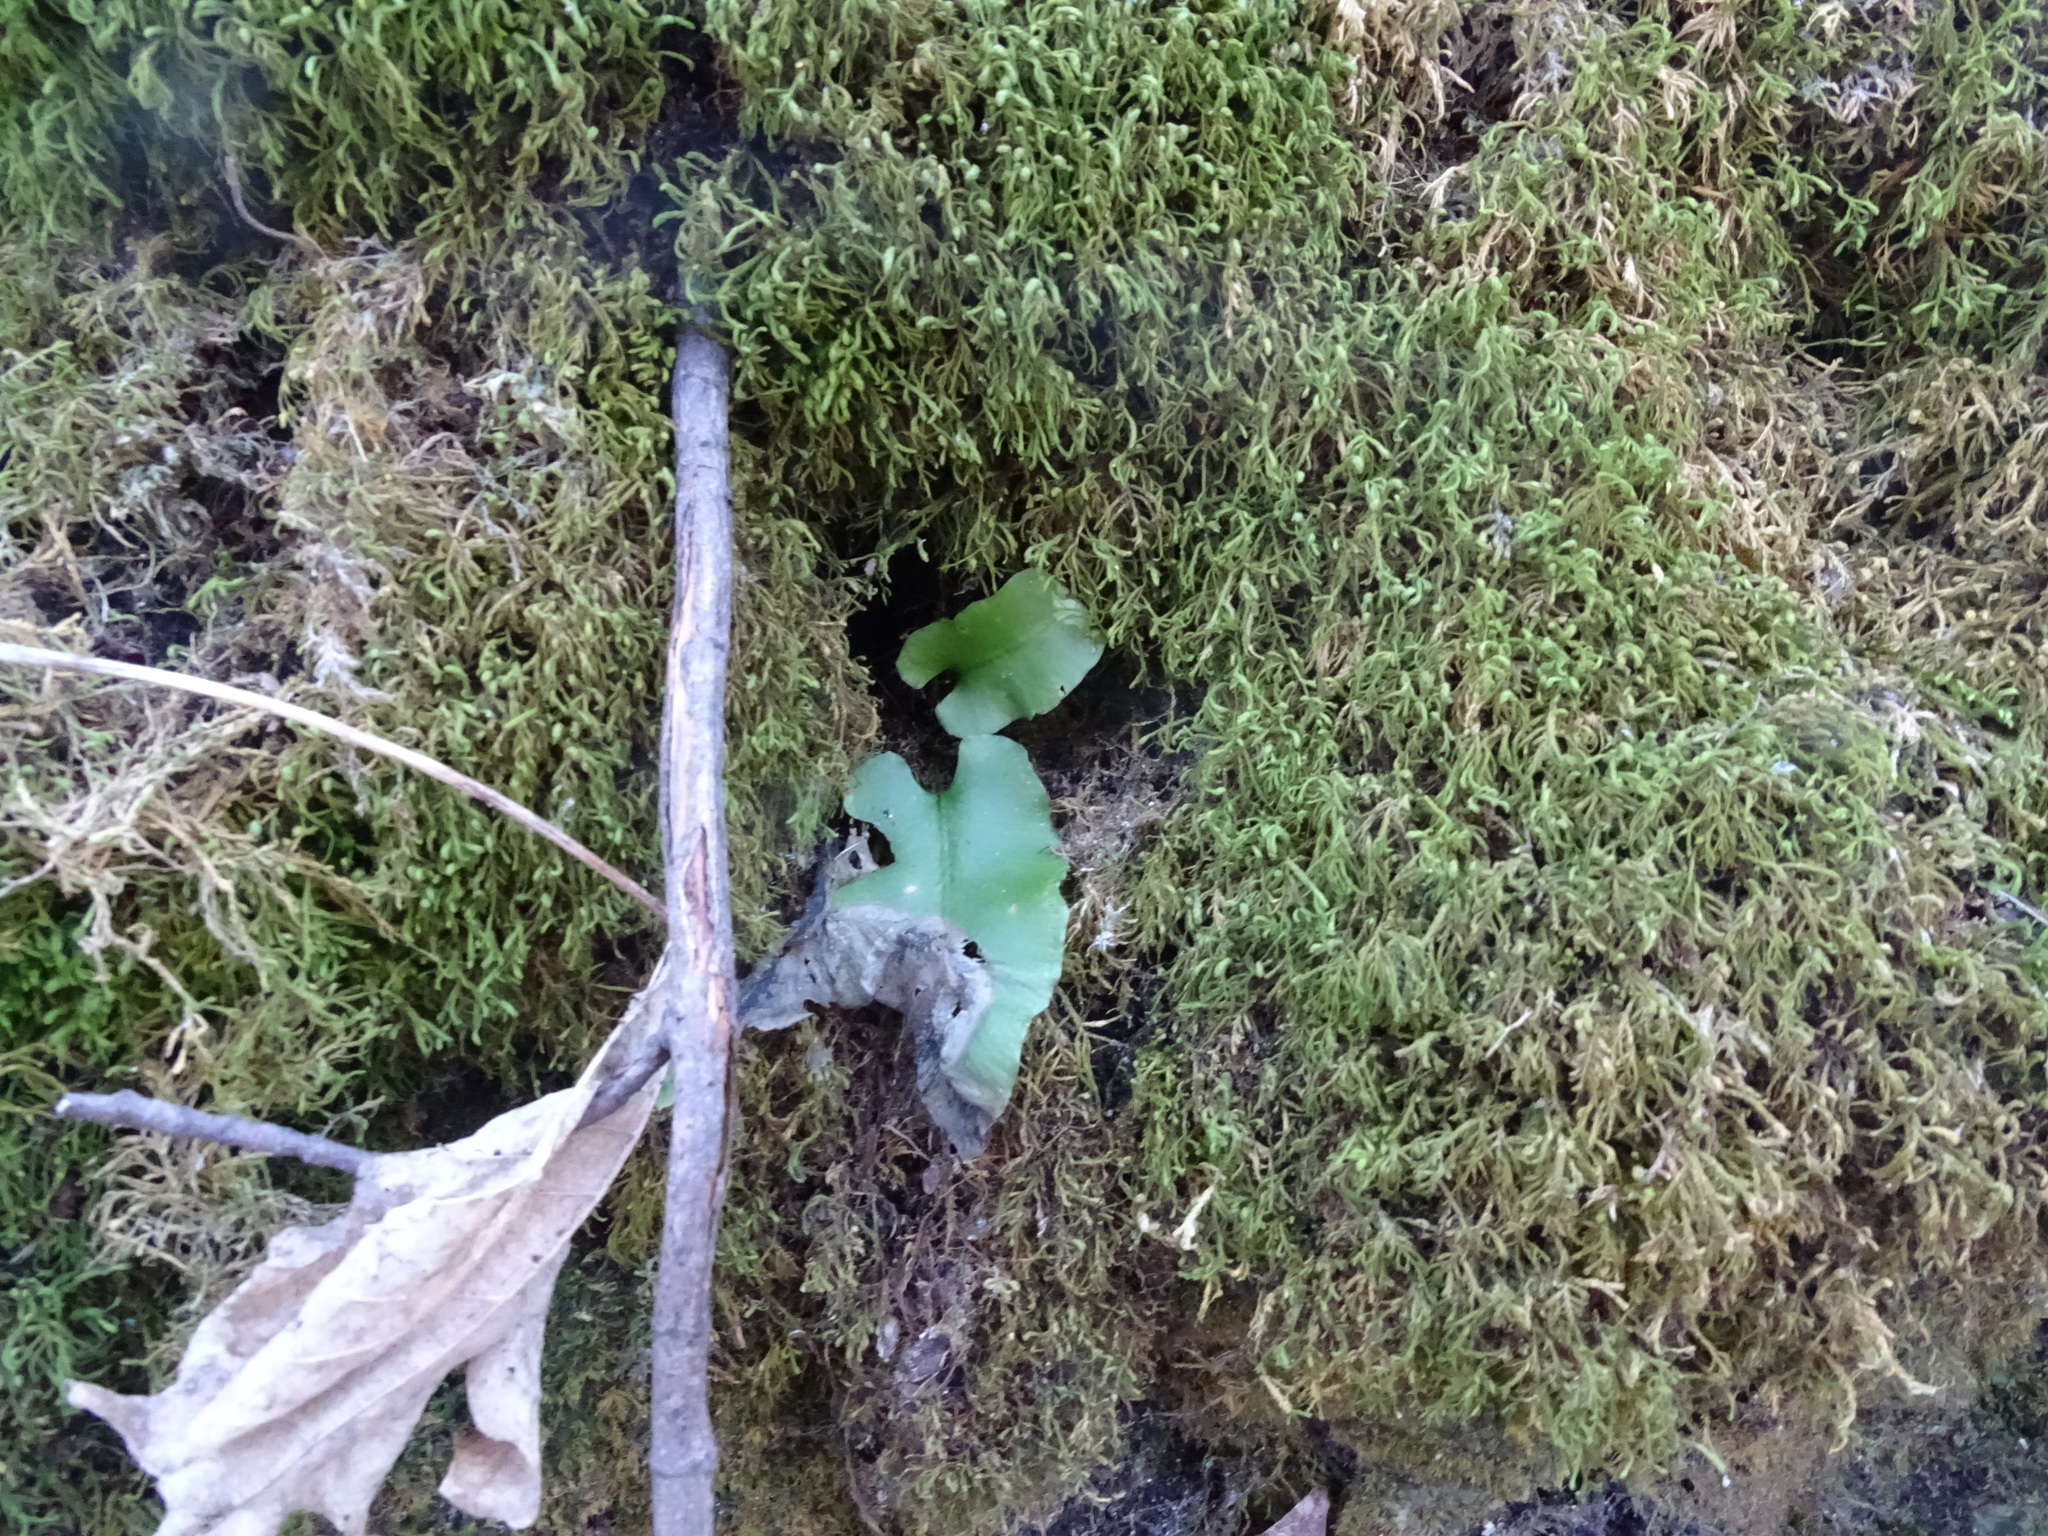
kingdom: Plantae
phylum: Tracheophyta
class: Polypodiopsida
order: Polypodiales
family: Aspleniaceae
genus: Asplenium
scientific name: Asplenium scolopendrium
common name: Hart's-tongue fern
